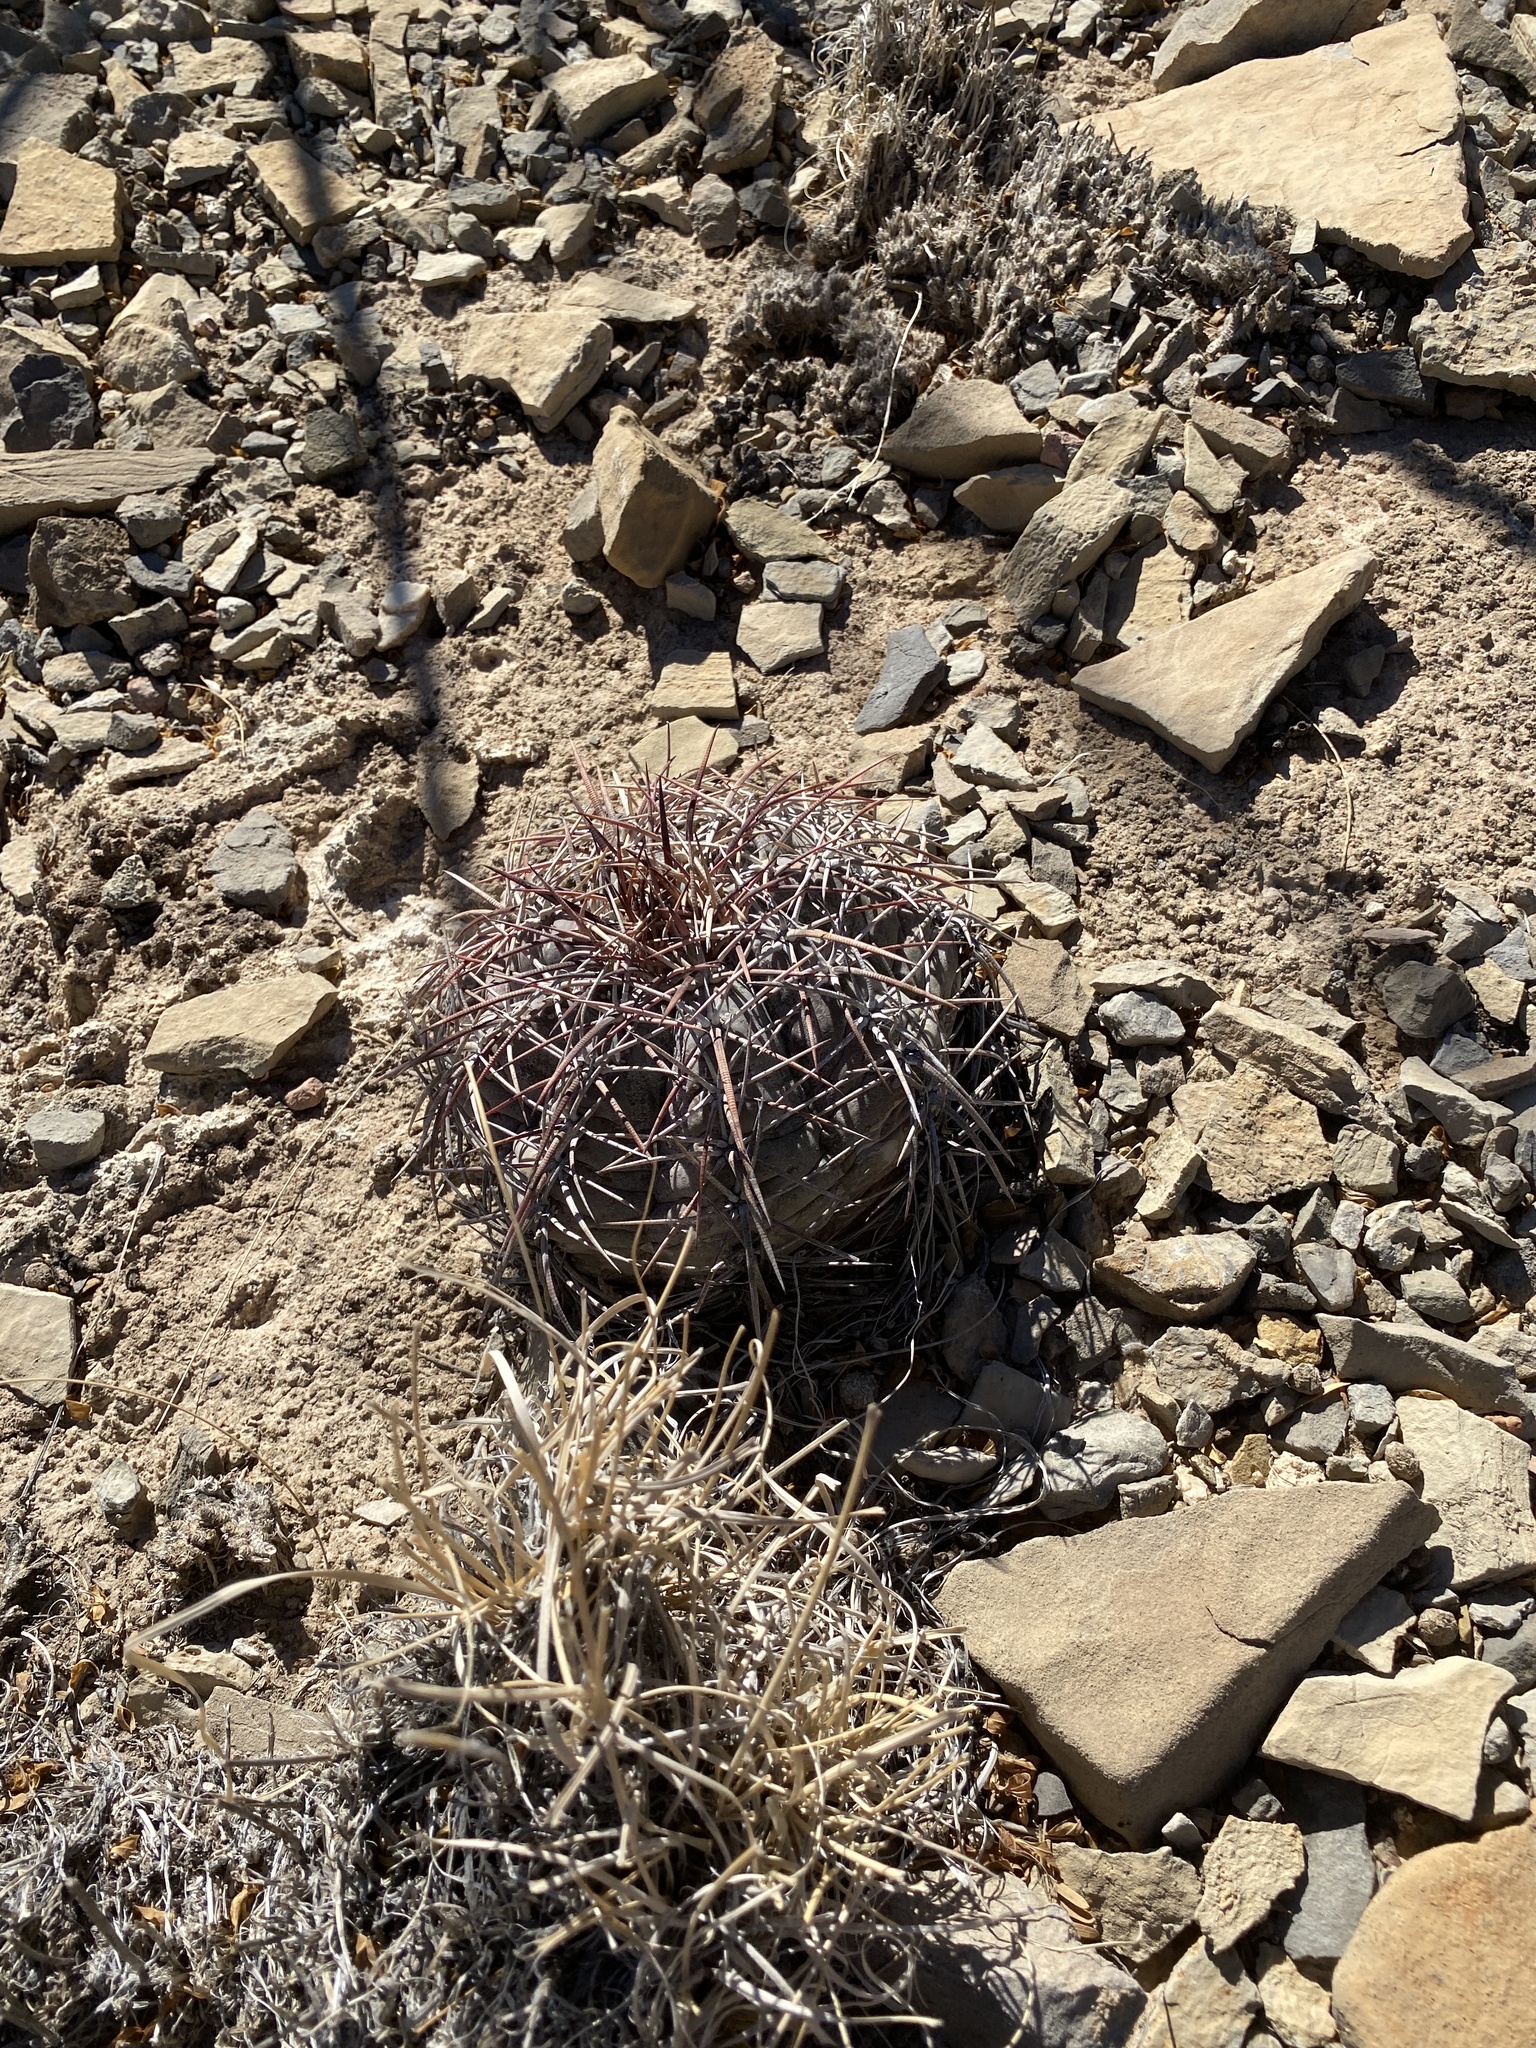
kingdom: Plantae
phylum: Tracheophyta
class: Magnoliopsida
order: Caryophyllales
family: Cactaceae
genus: Echinocactus
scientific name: Echinocactus horizonthalonius
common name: Devilshead
